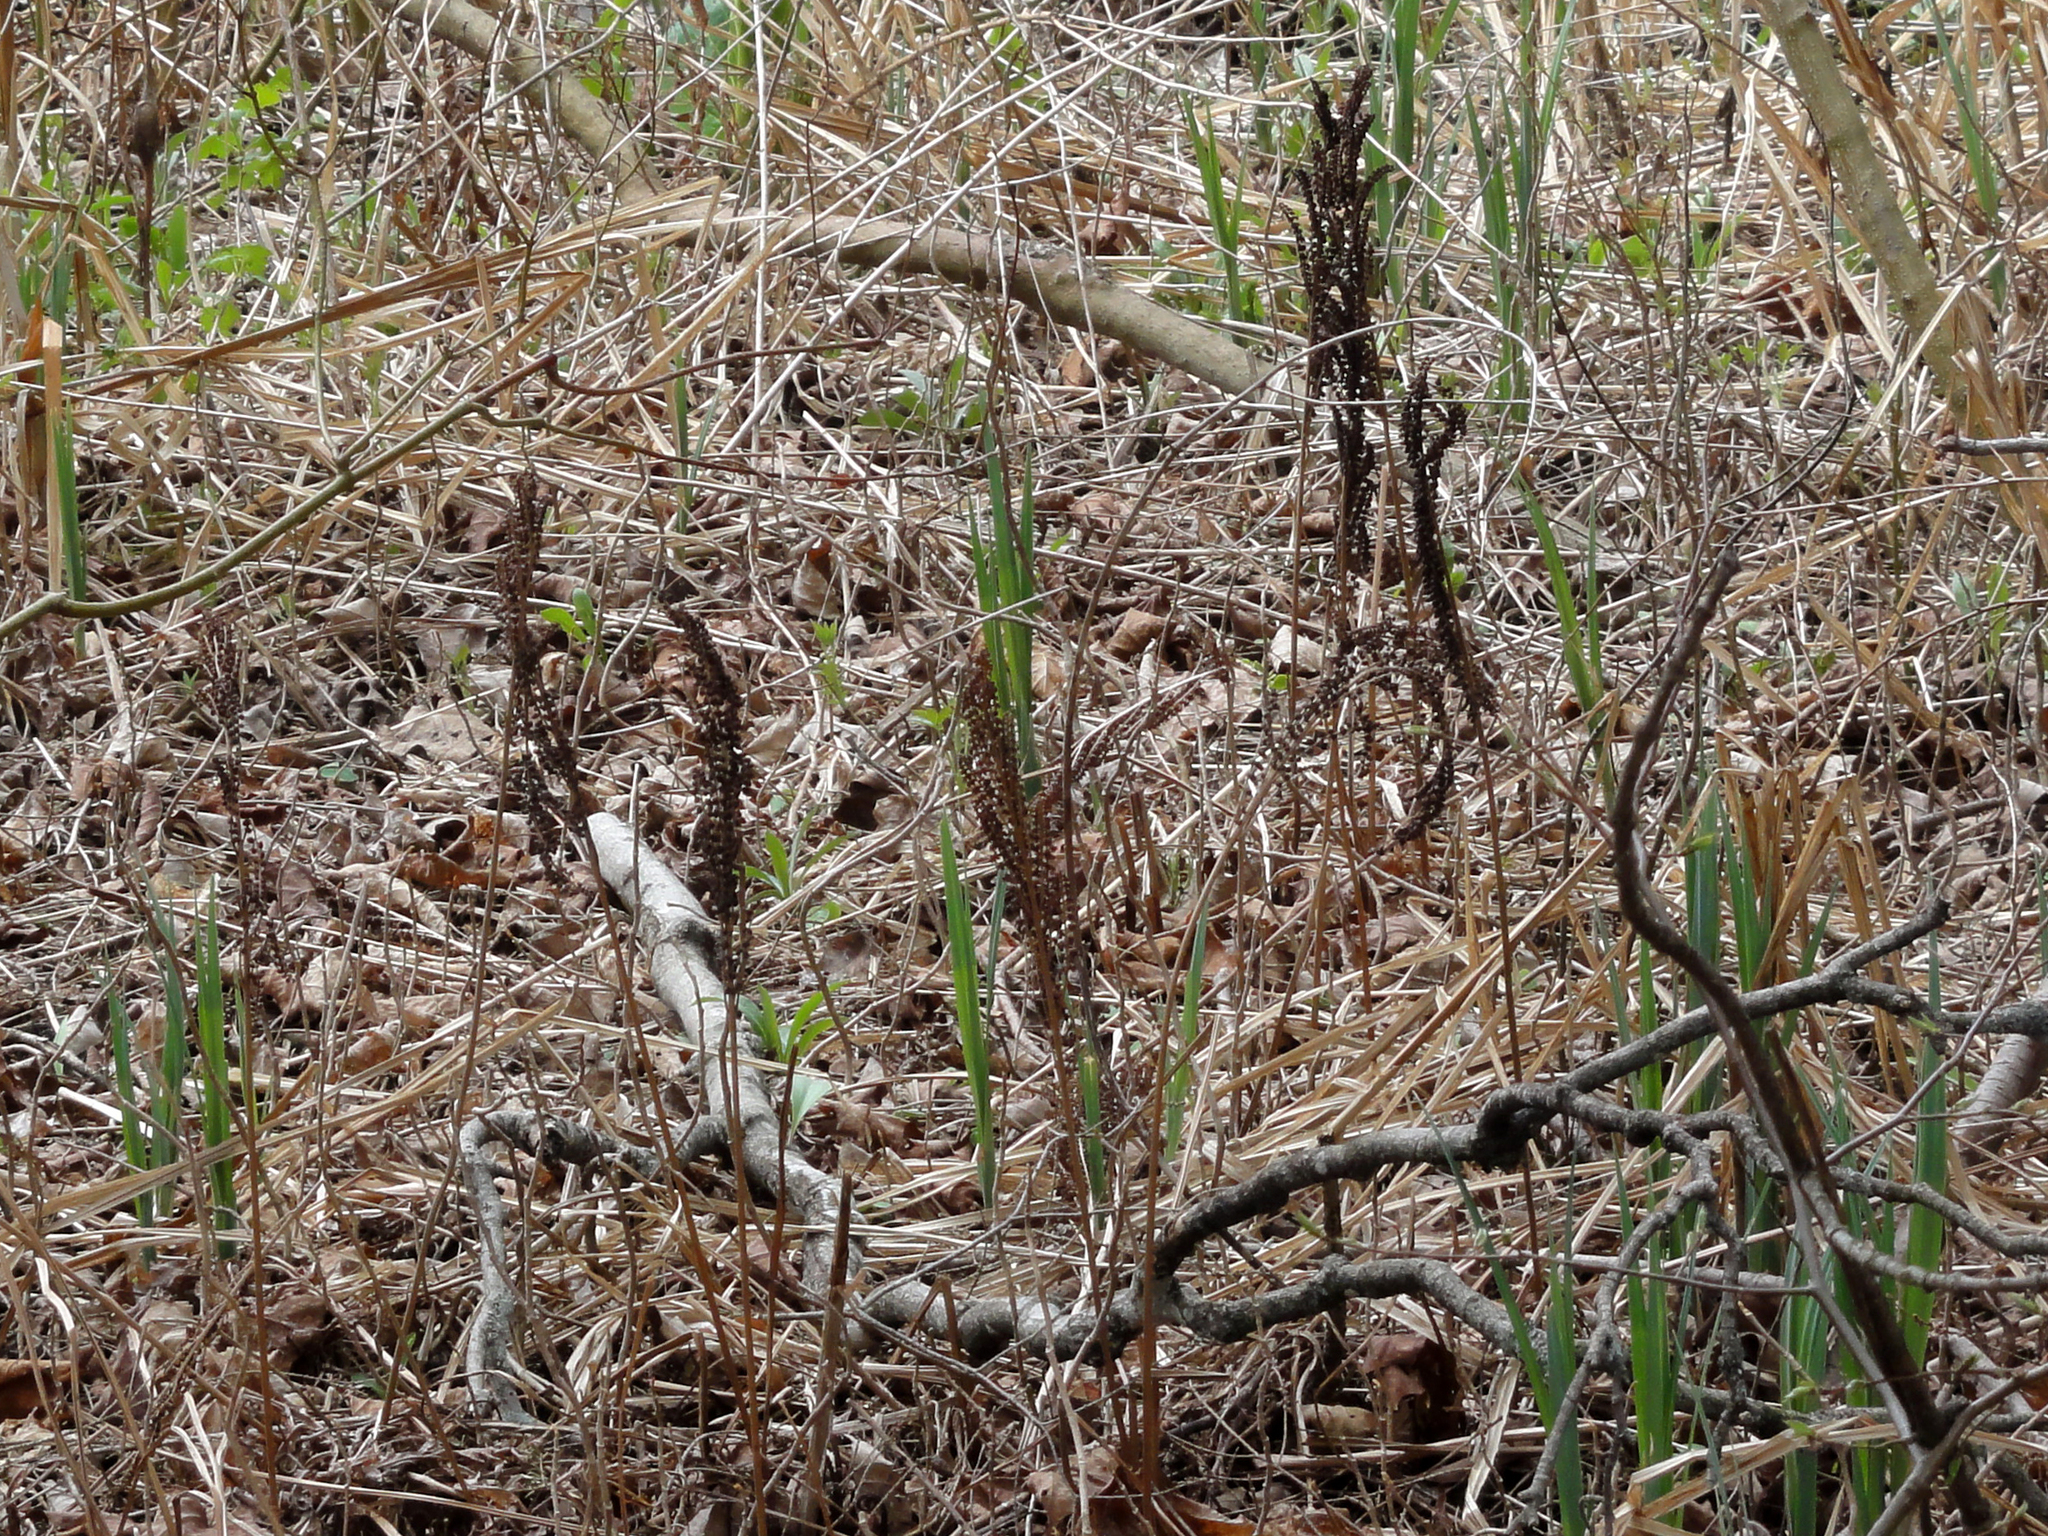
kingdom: Plantae
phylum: Tracheophyta
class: Polypodiopsida
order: Polypodiales
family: Onocleaceae
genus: Onoclea
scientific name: Onoclea sensibilis
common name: Sensitive fern
